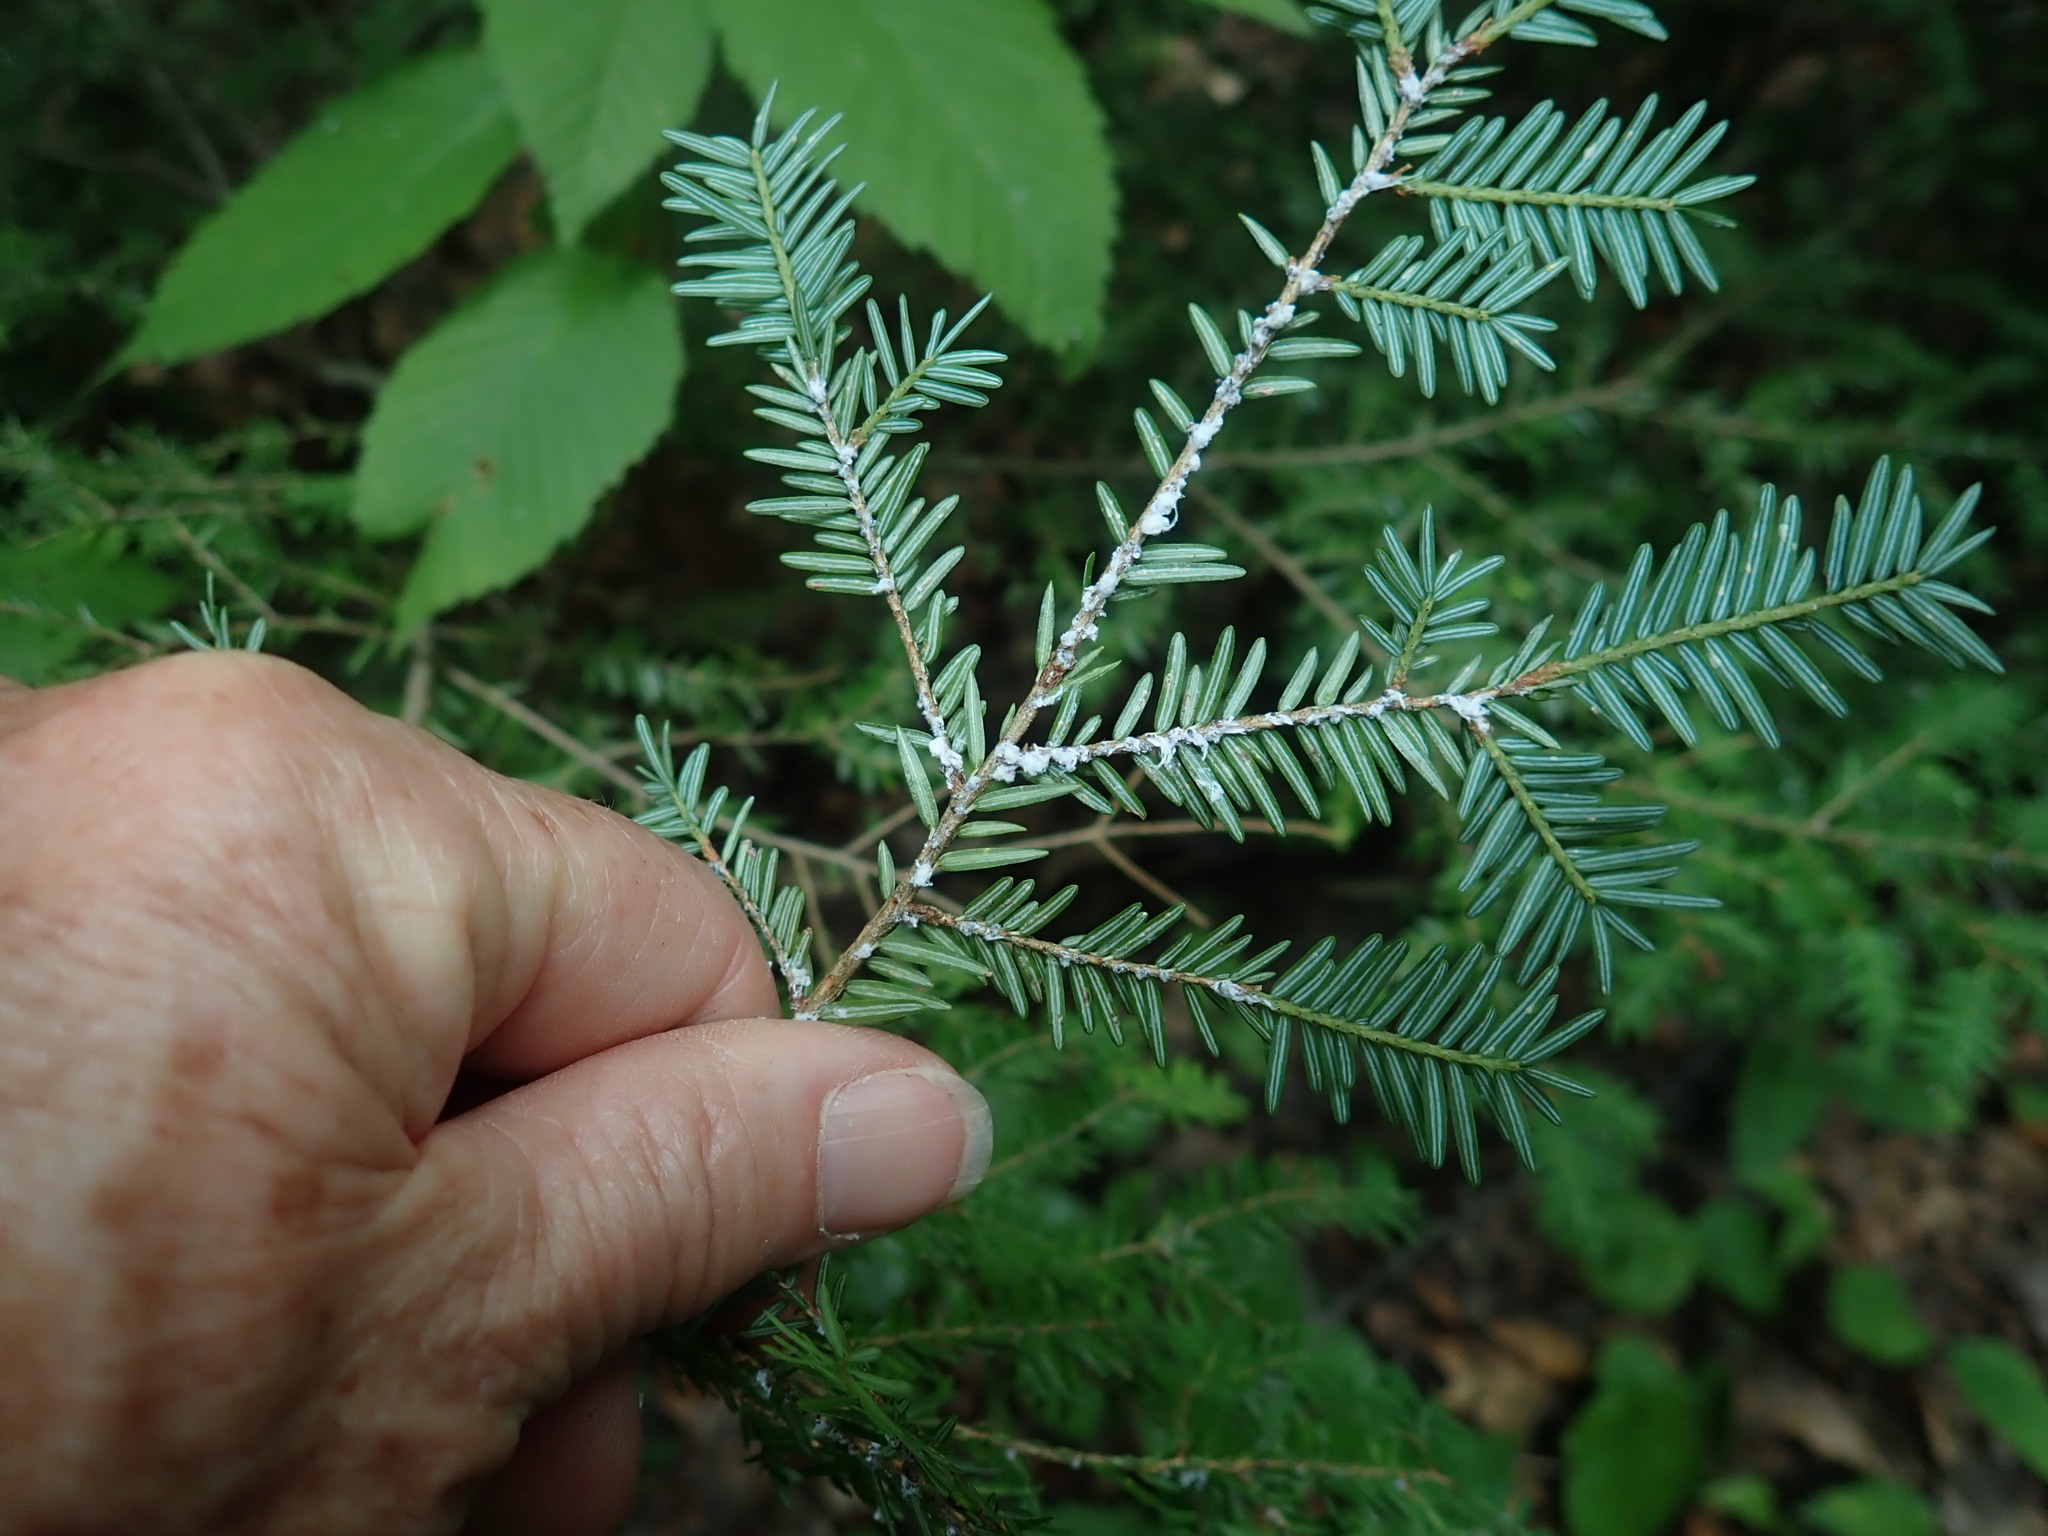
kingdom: Animalia
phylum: Arthropoda
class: Insecta
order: Hemiptera
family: Adelgidae
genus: Adelges
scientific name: Adelges tsugae
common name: Hemlock woolly adelgid
